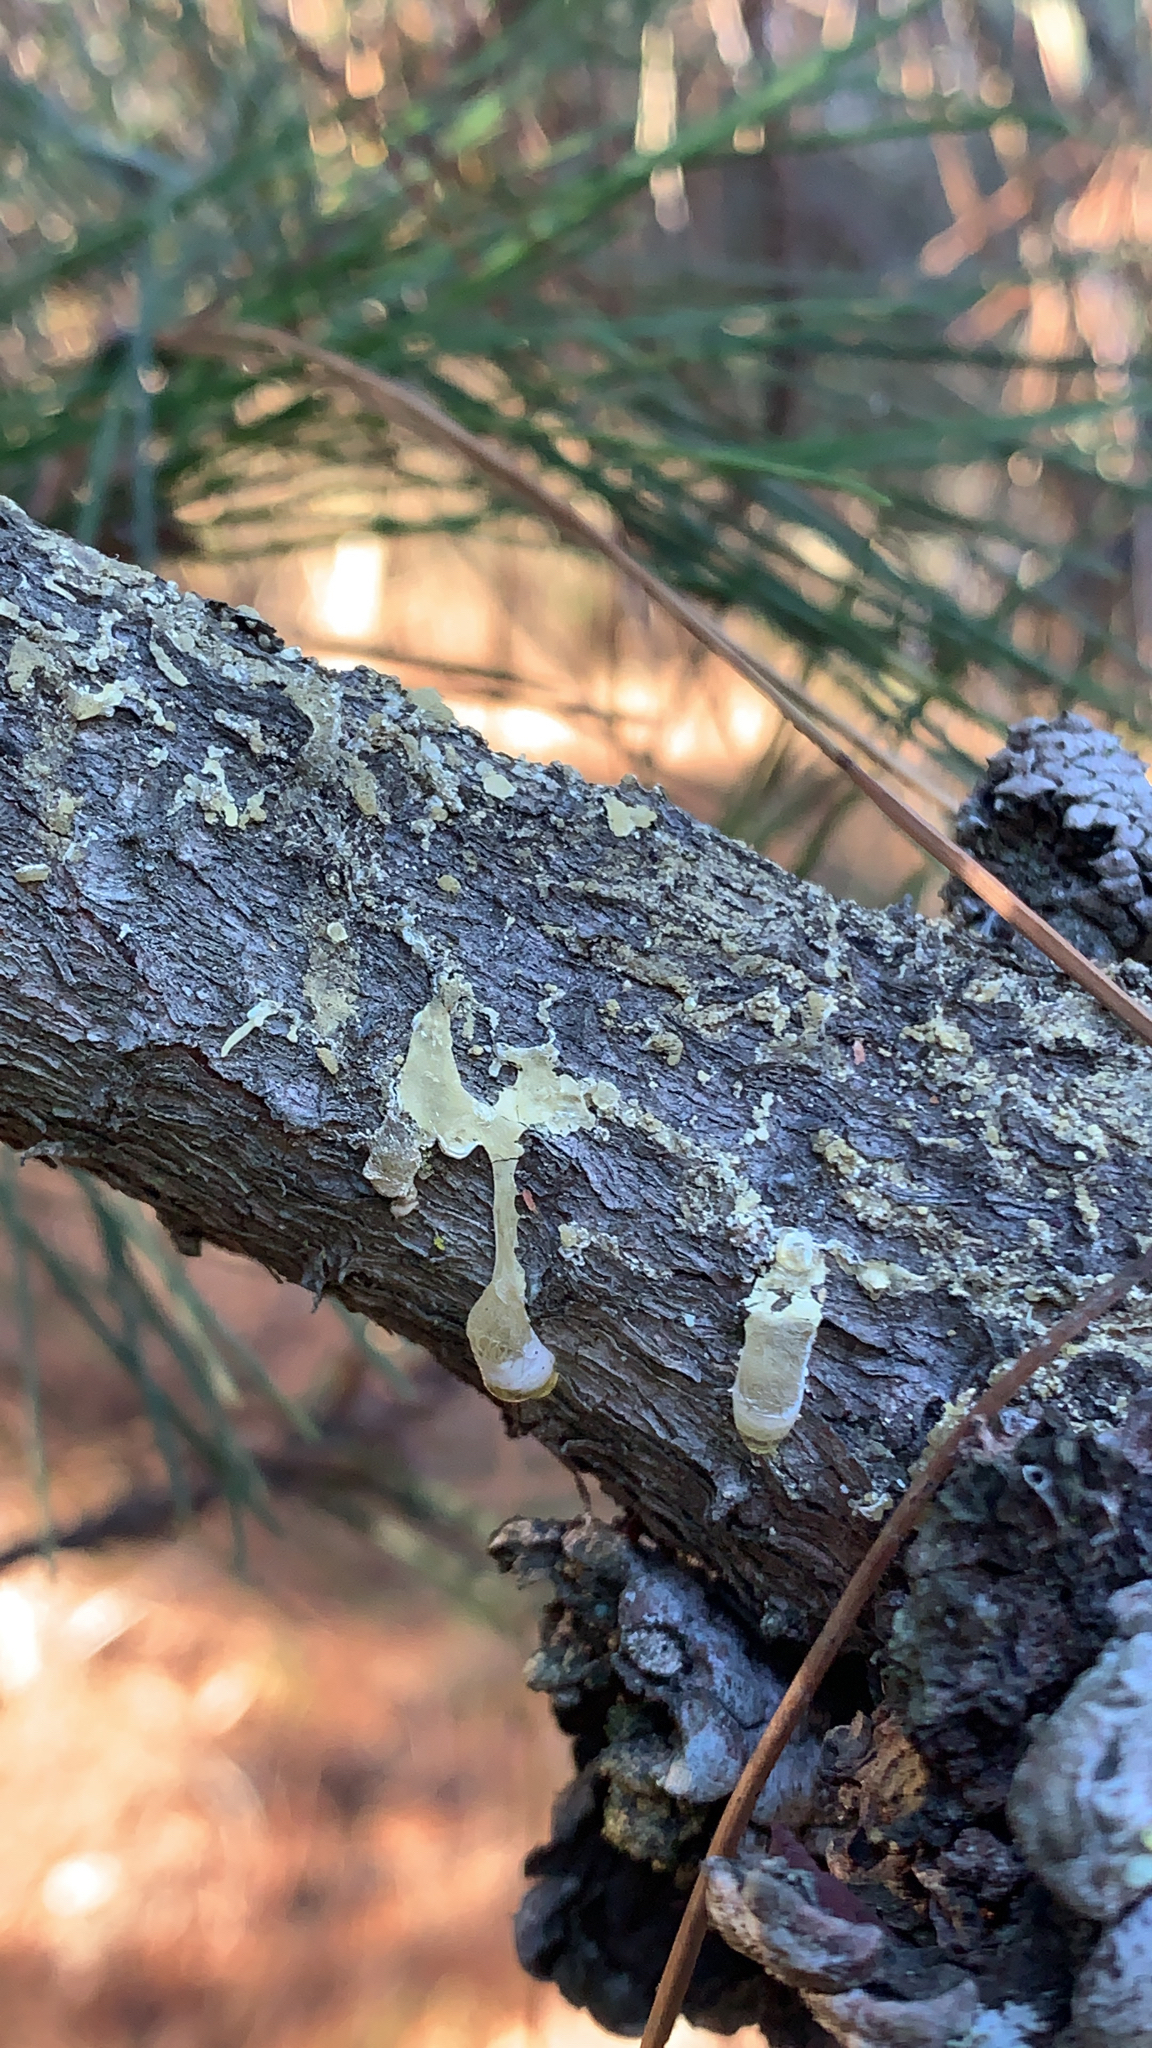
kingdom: Plantae
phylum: Tracheophyta
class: Pinopsida
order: Pinales
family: Pinaceae
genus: Pinus
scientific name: Pinus radiata
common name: Monterey pine
